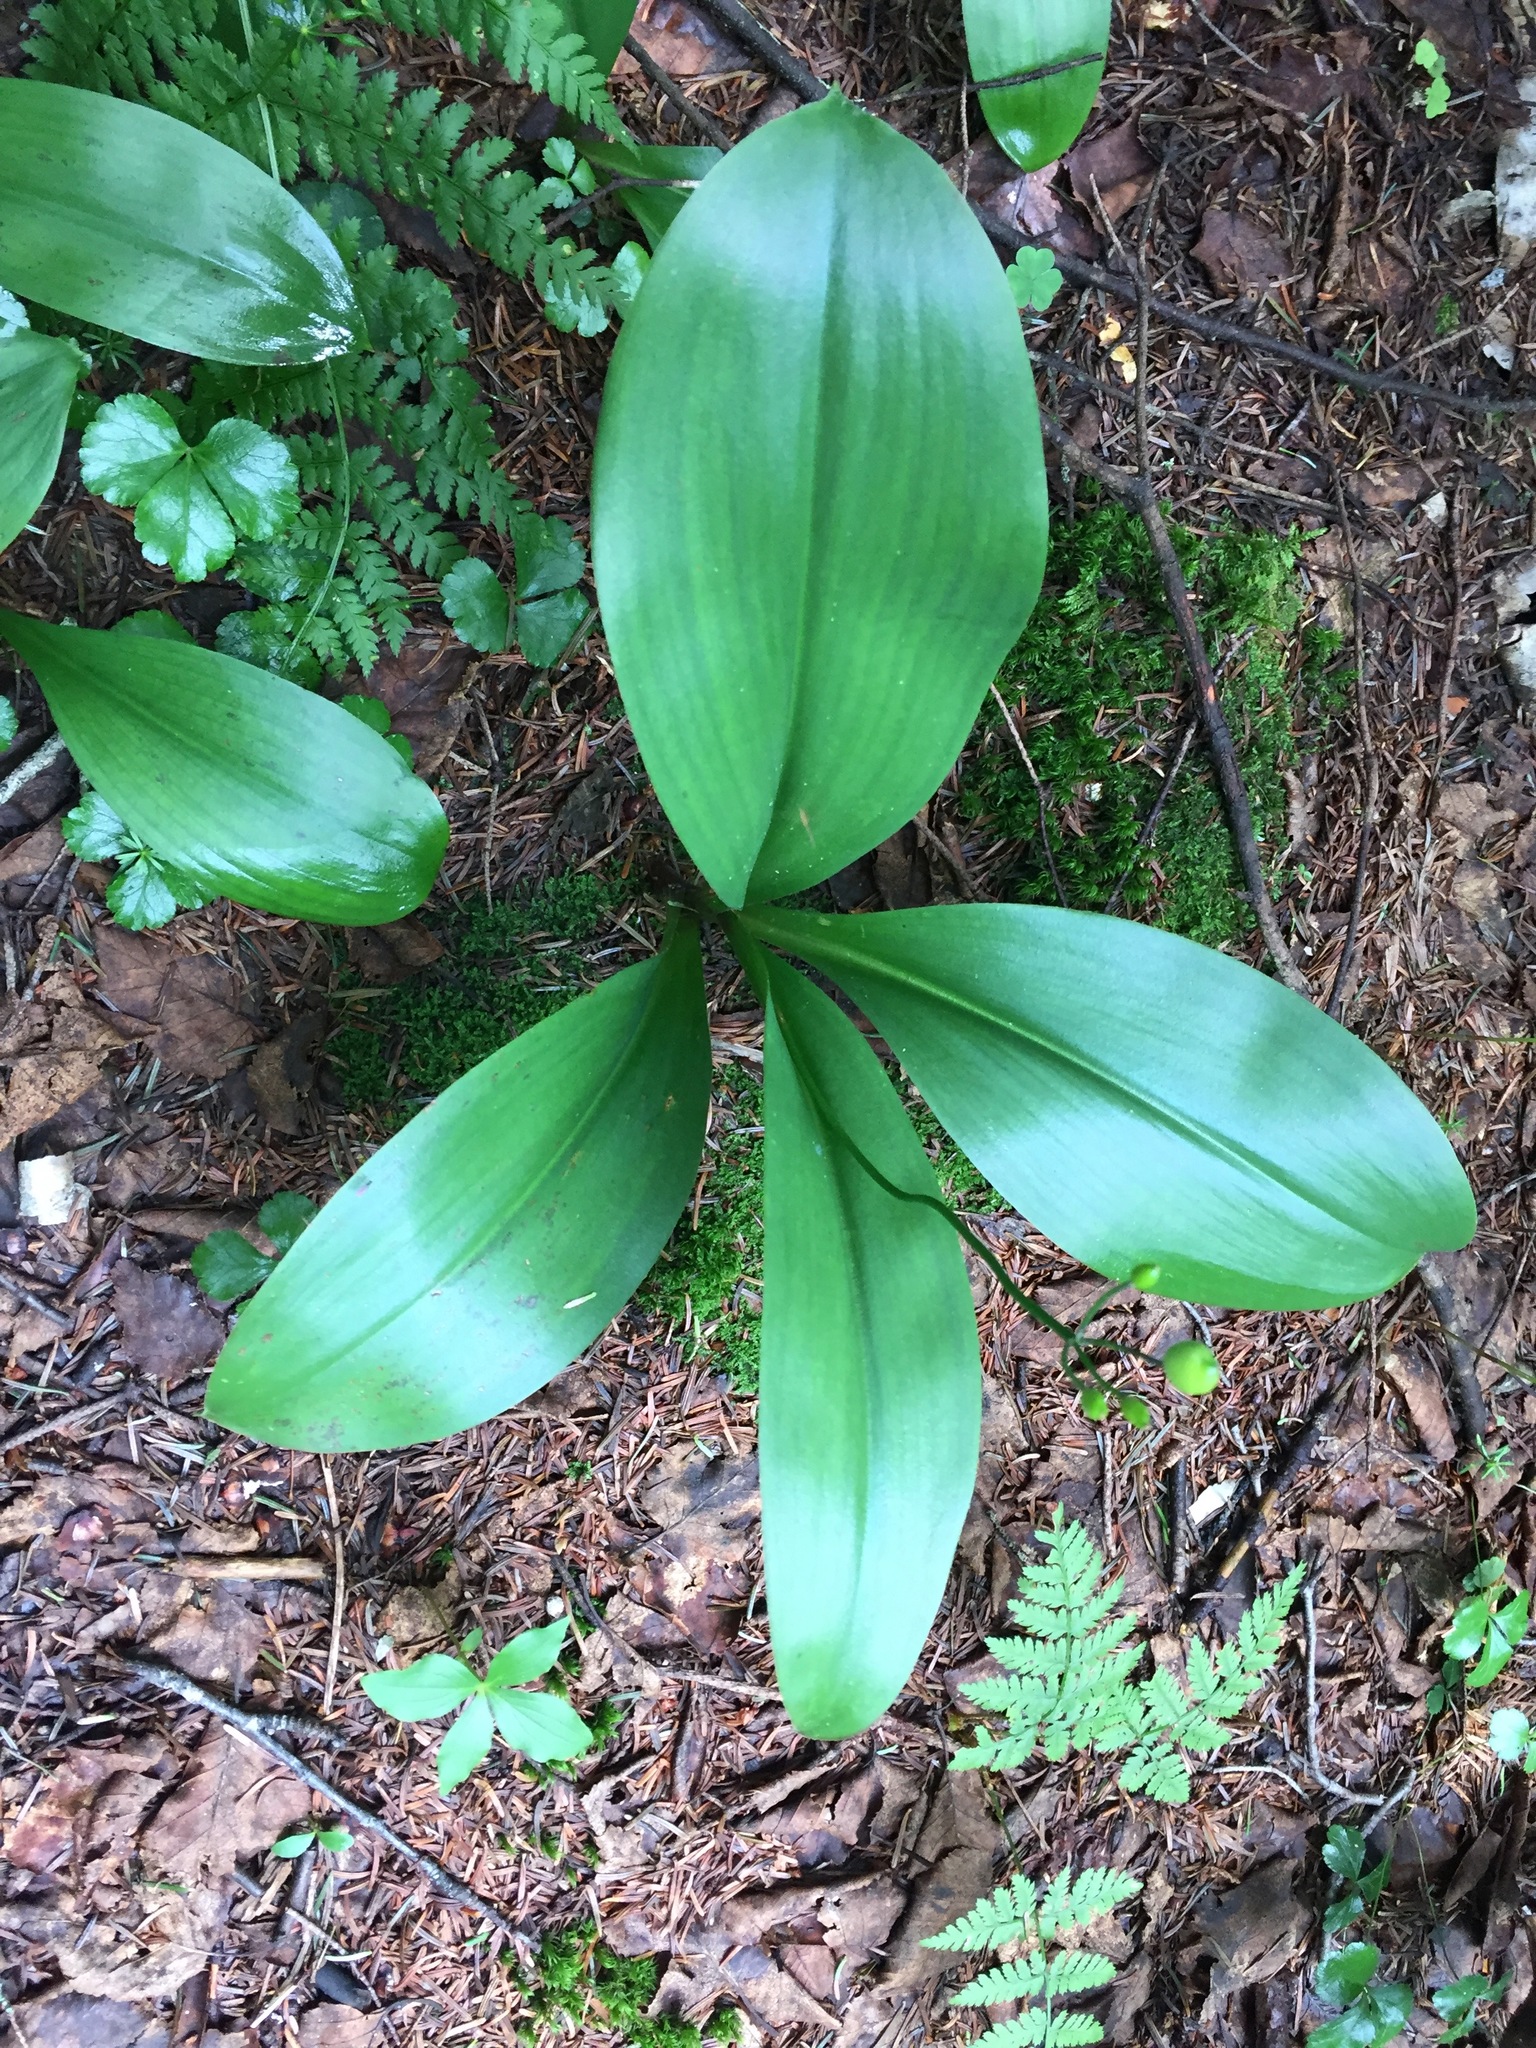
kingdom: Plantae
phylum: Tracheophyta
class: Liliopsida
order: Liliales
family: Liliaceae
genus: Clintonia
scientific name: Clintonia borealis
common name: Yellow clintonia
